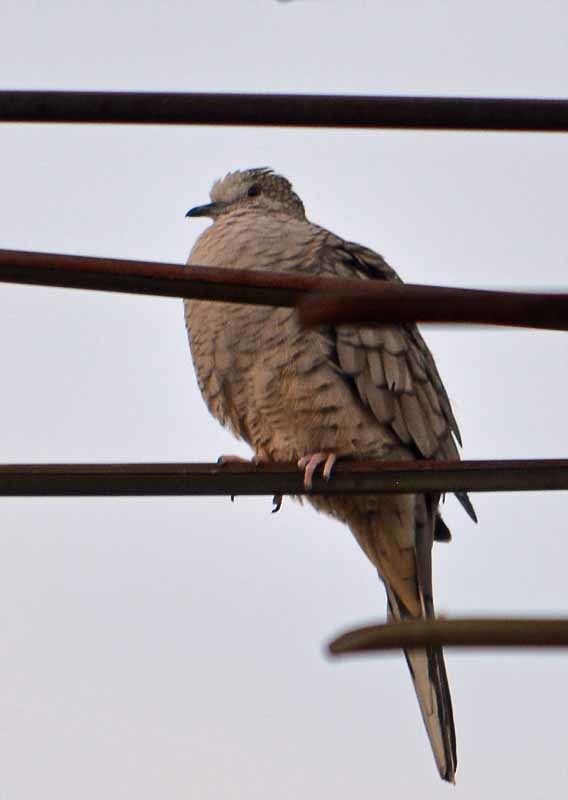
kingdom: Animalia
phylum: Chordata
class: Aves
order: Columbiformes
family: Columbidae
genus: Columbina
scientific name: Columbina inca
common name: Inca dove
